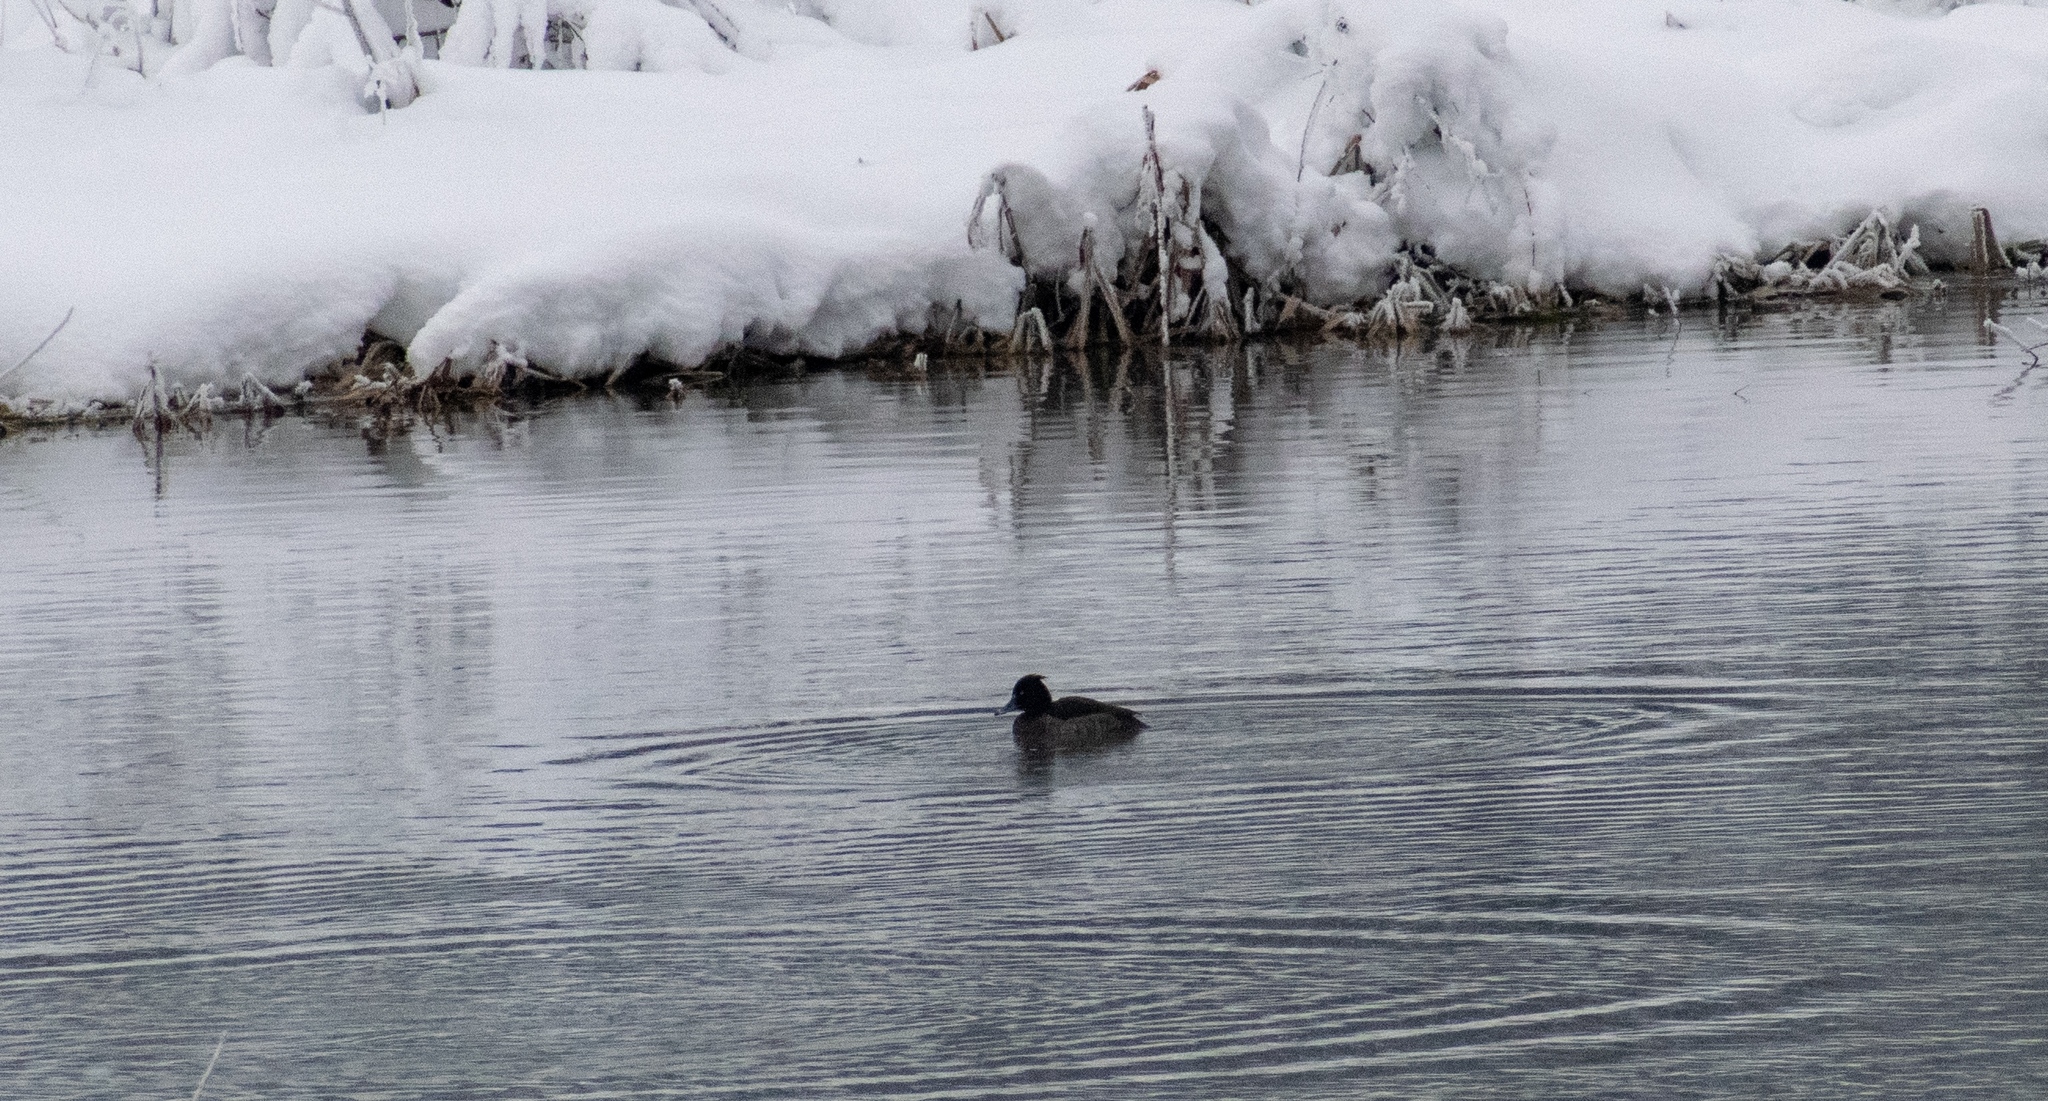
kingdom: Animalia
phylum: Chordata
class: Aves
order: Anseriformes
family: Anatidae
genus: Aythya
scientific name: Aythya fuligula
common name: Tufted duck
